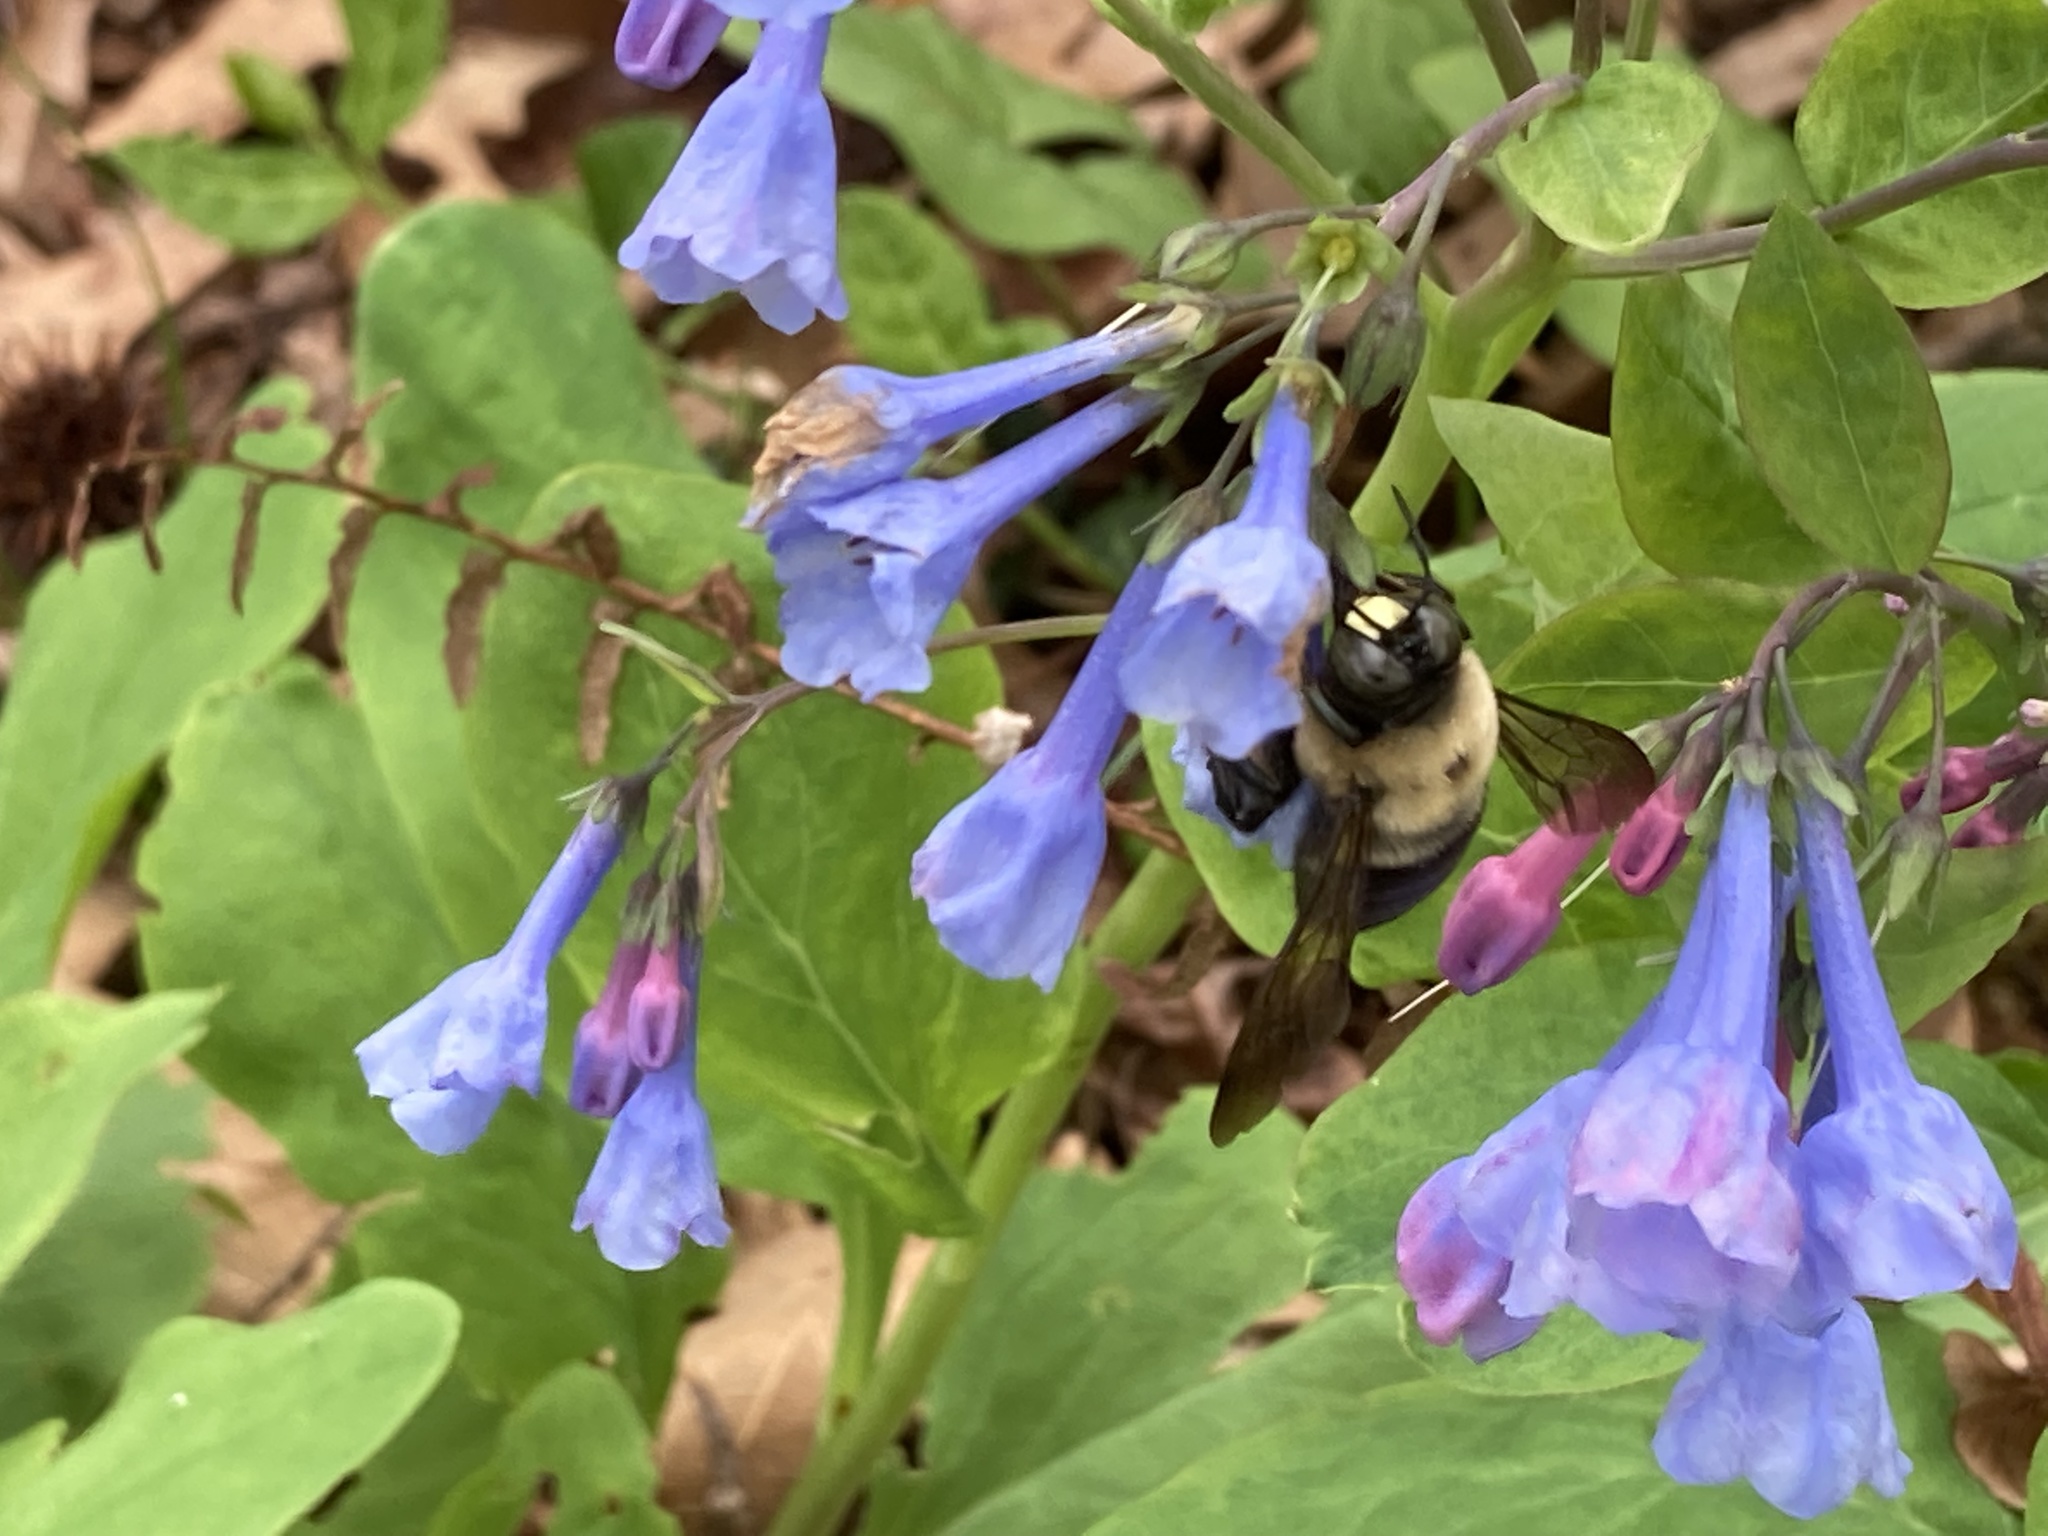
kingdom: Animalia
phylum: Arthropoda
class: Insecta
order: Hymenoptera
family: Apidae
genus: Xylocopa
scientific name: Xylocopa virginica
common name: Carpenter bee
